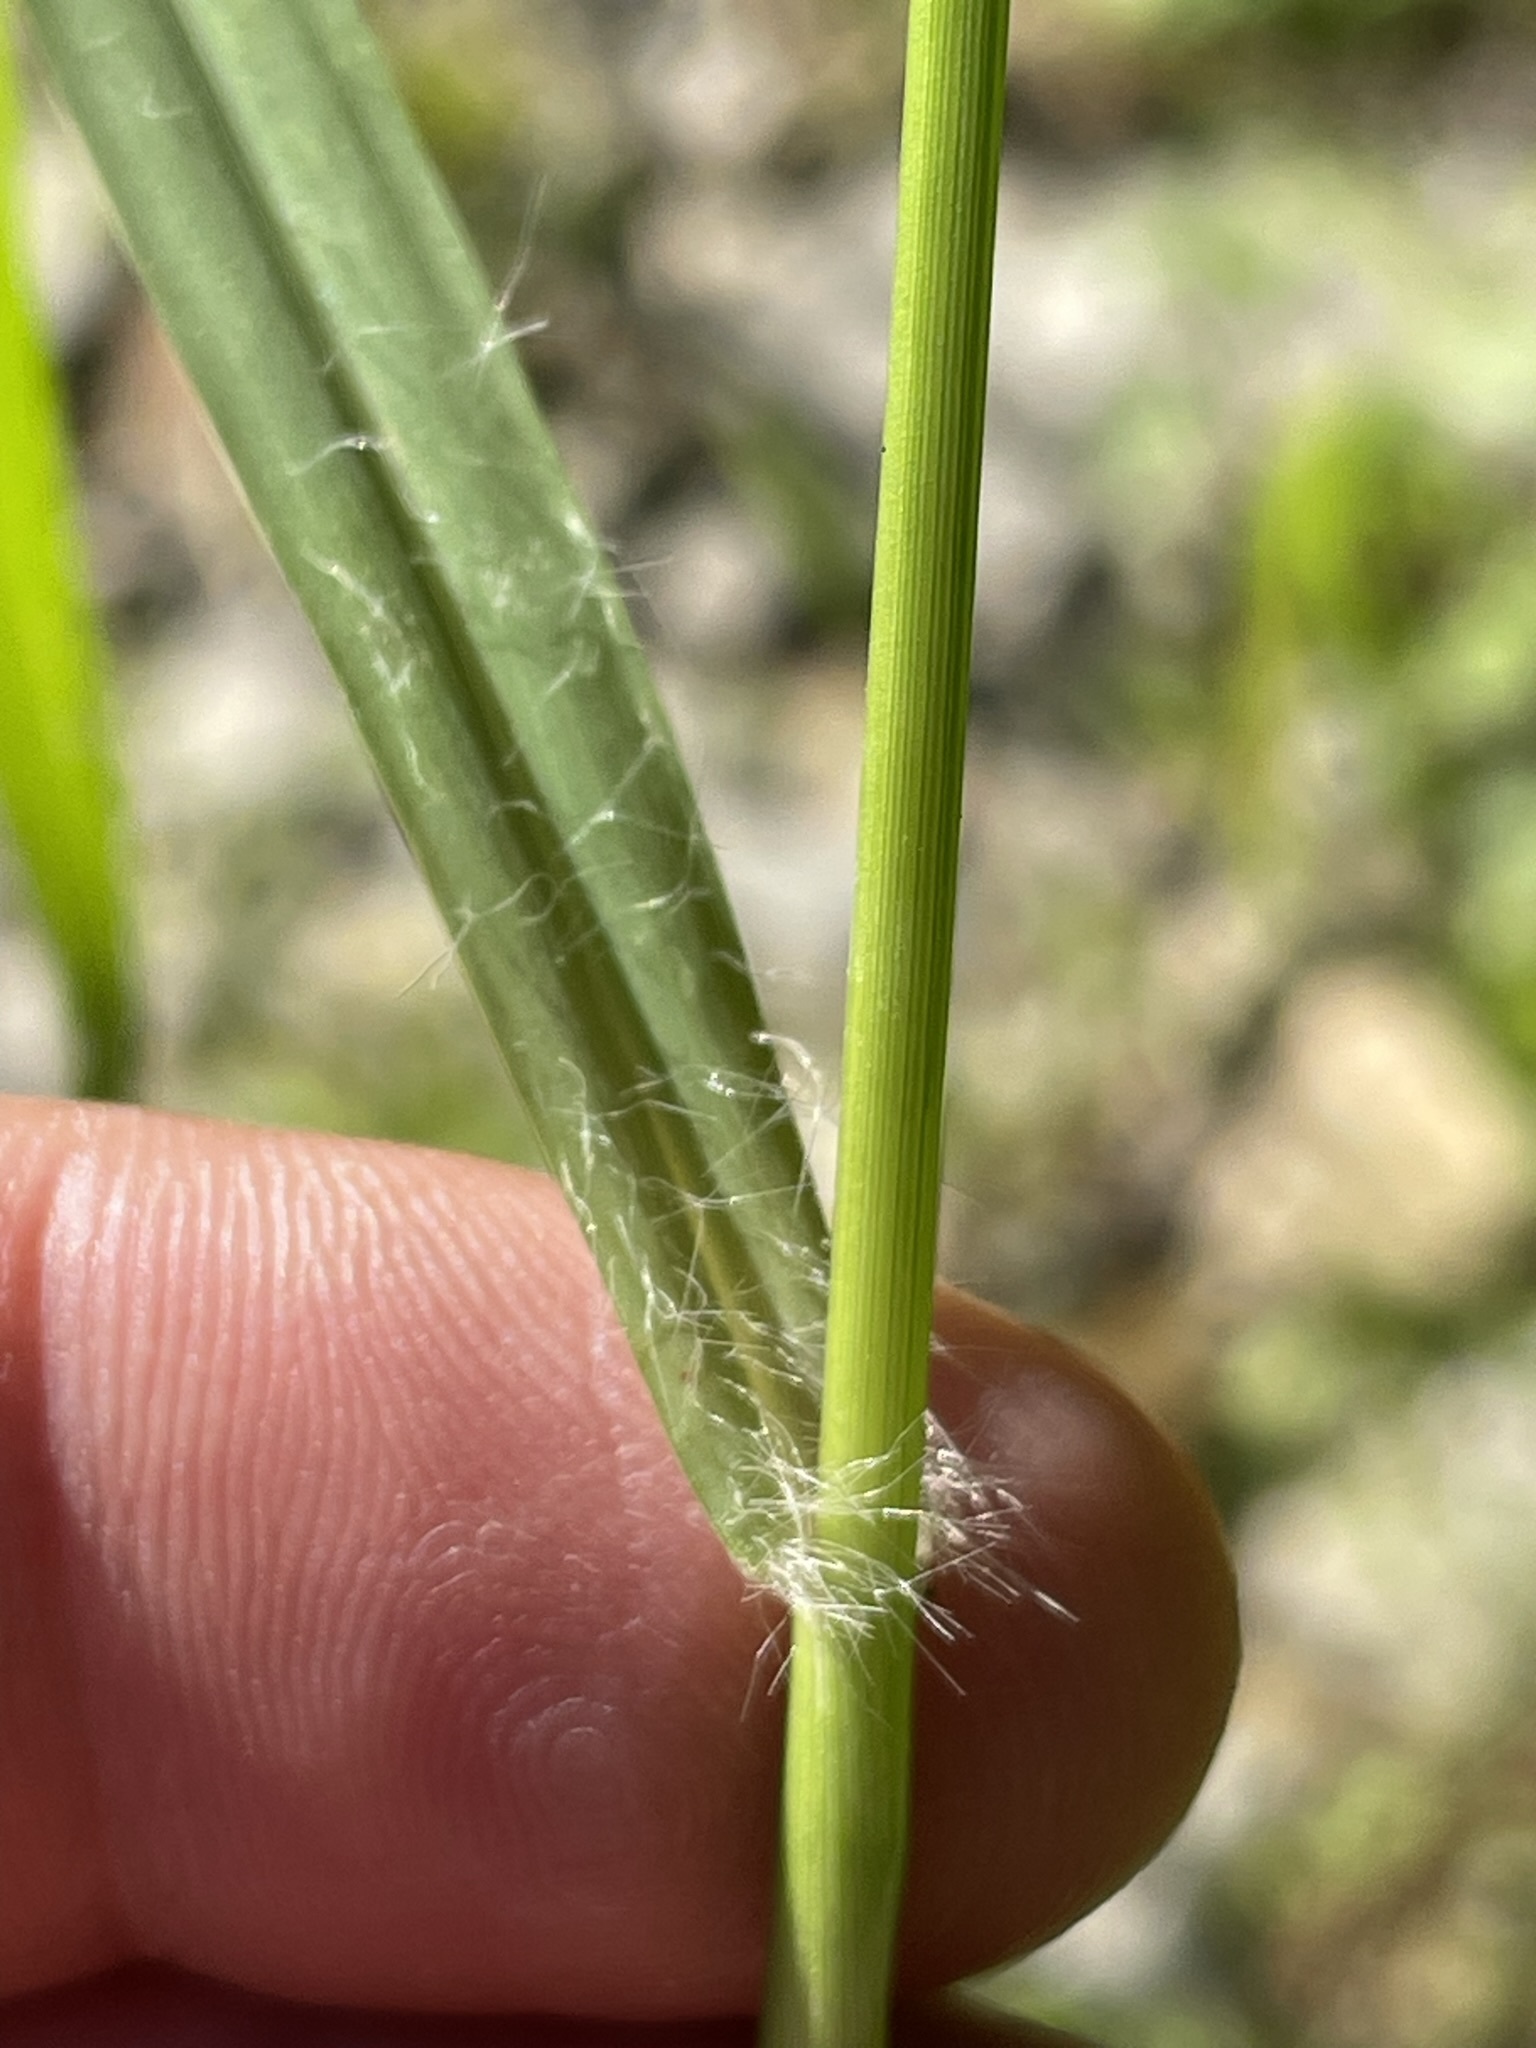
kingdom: Plantae
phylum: Tracheophyta
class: Liliopsida
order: Poales
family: Poaceae
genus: Setaria
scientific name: Setaria pumila
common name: Yellow bristle-grass
